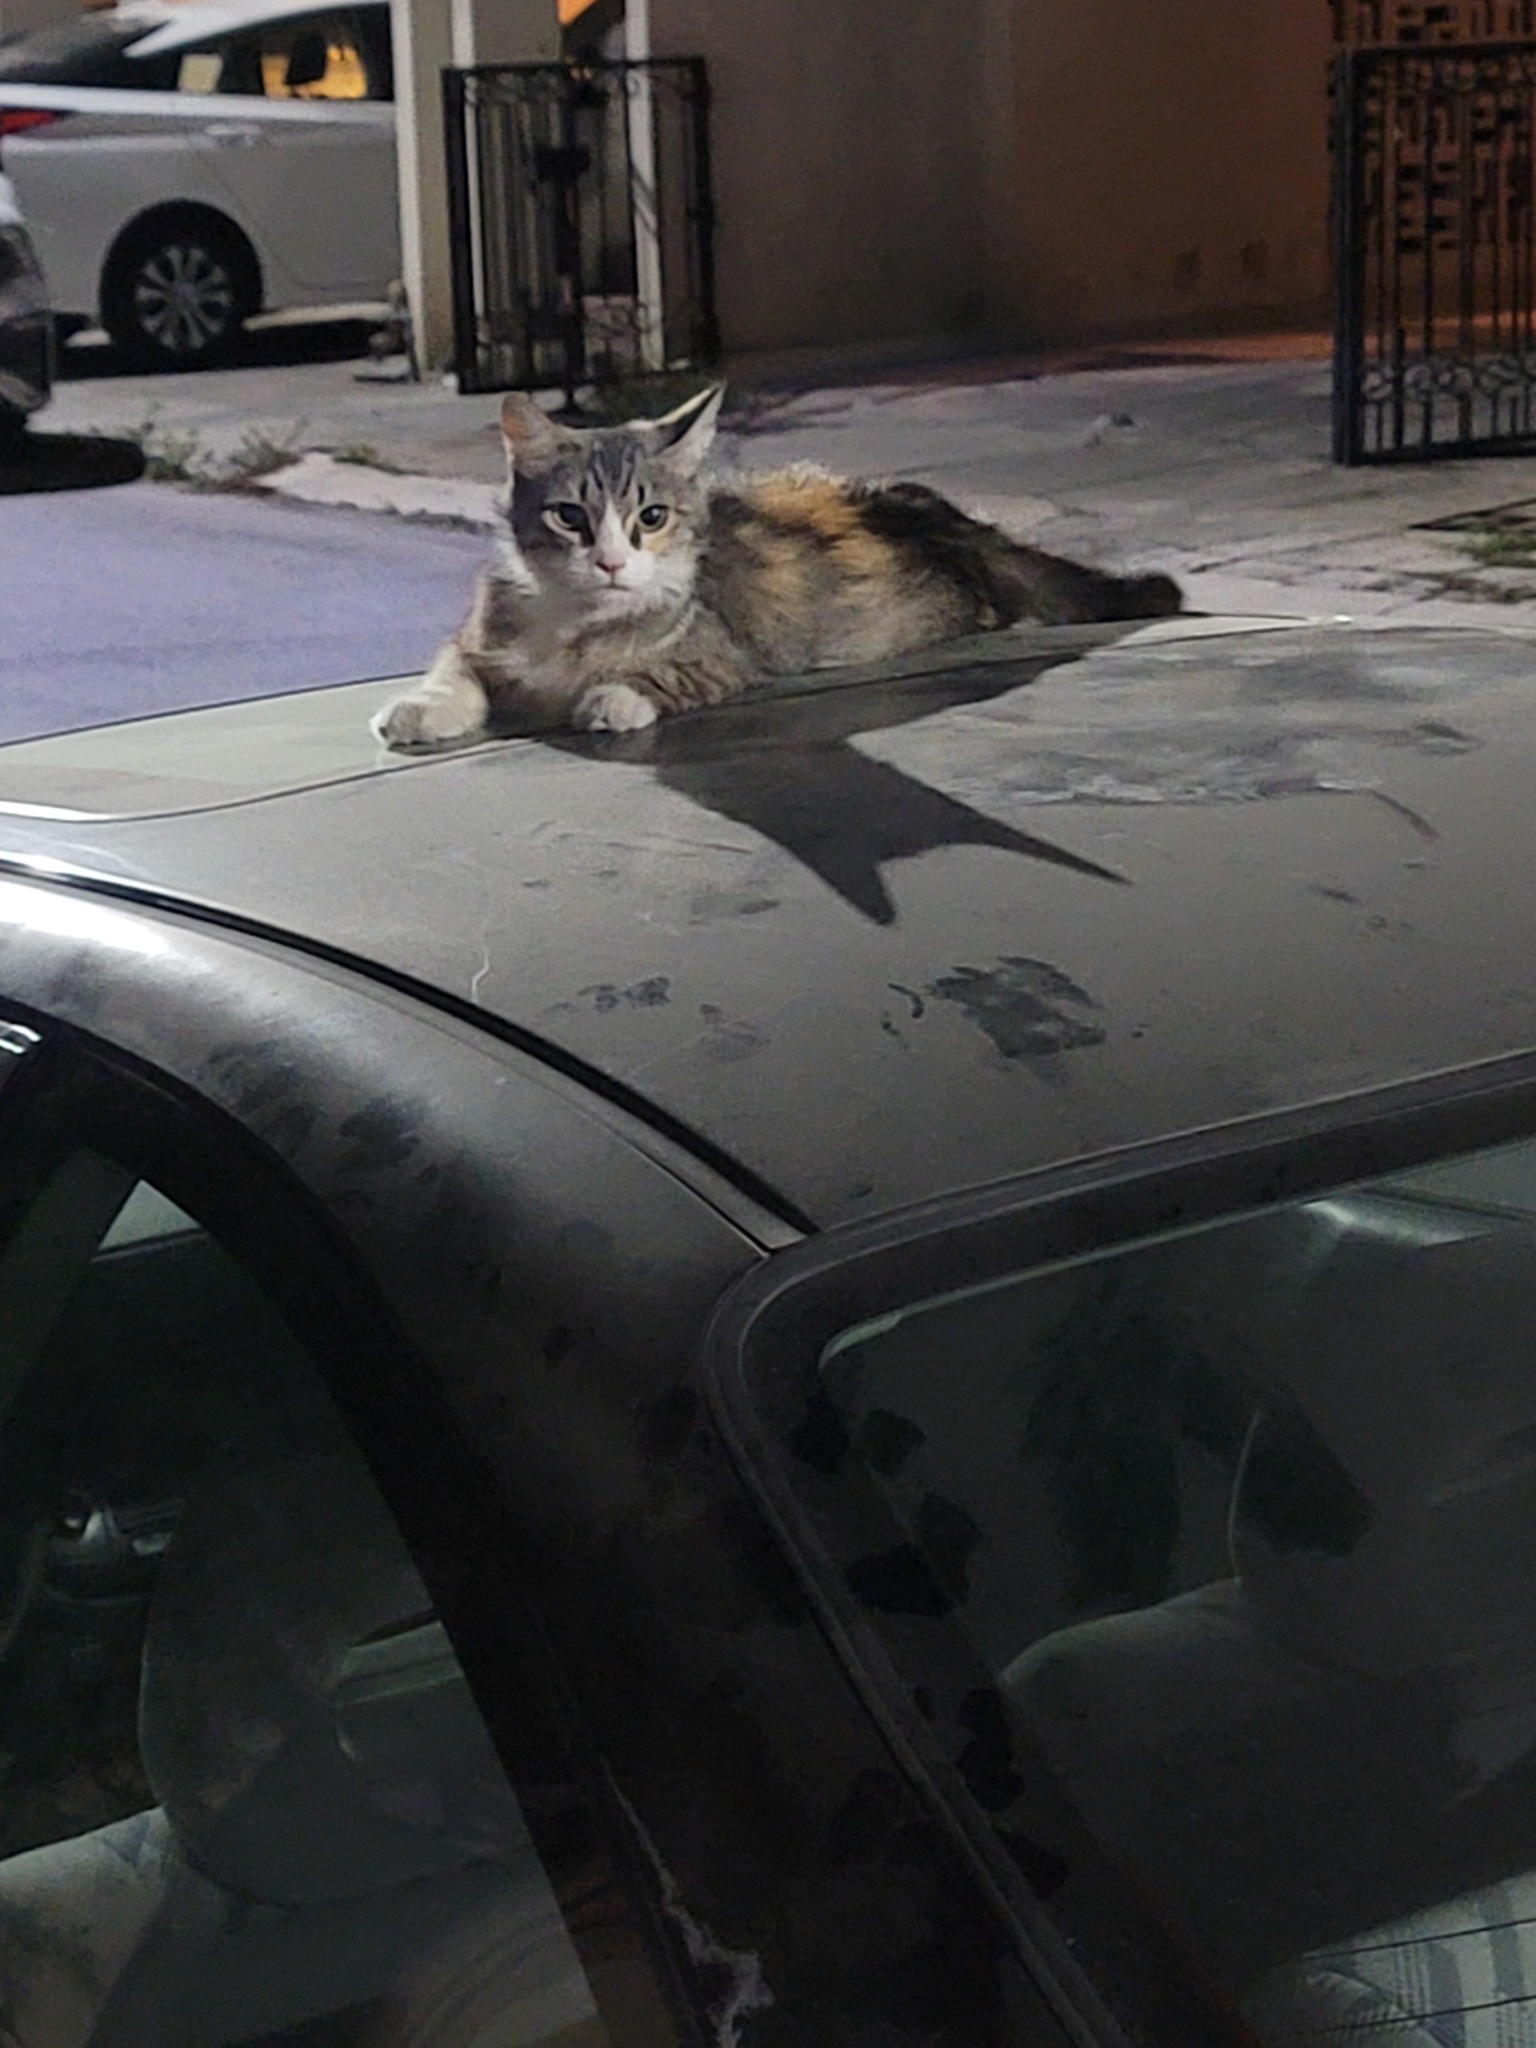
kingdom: Animalia
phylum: Chordata
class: Mammalia
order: Carnivora
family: Felidae
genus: Felis
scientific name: Felis catus
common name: Domestic cat
